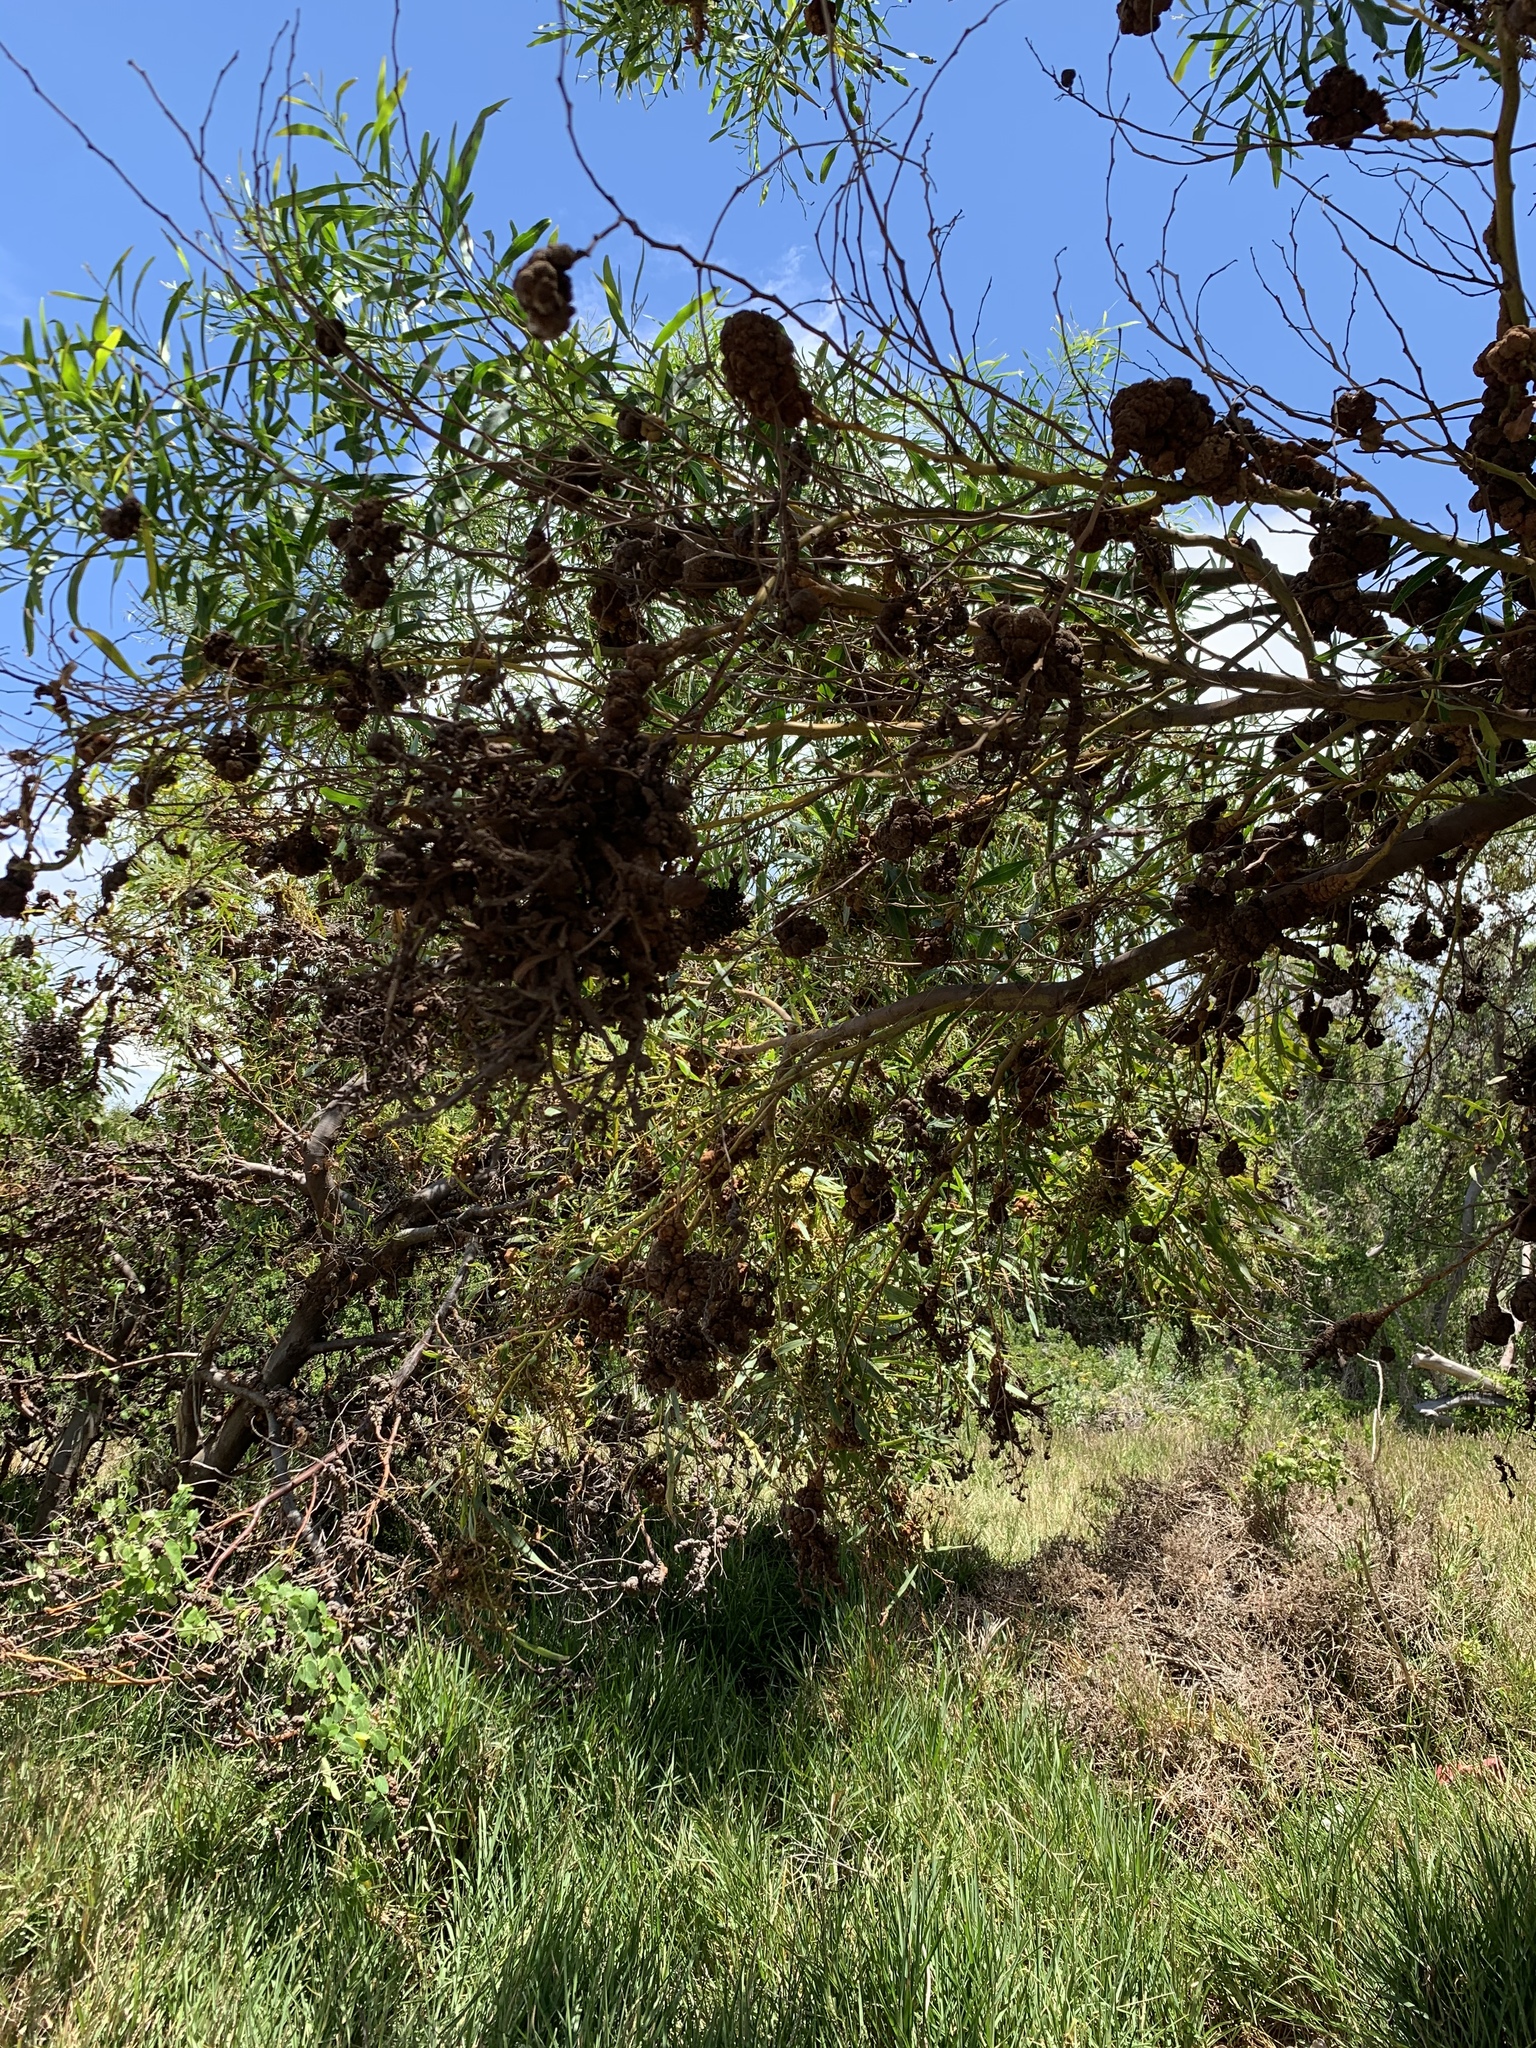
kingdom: Plantae
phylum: Tracheophyta
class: Magnoliopsida
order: Fabales
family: Fabaceae
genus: Acacia
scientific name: Acacia saligna
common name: Orange wattle
